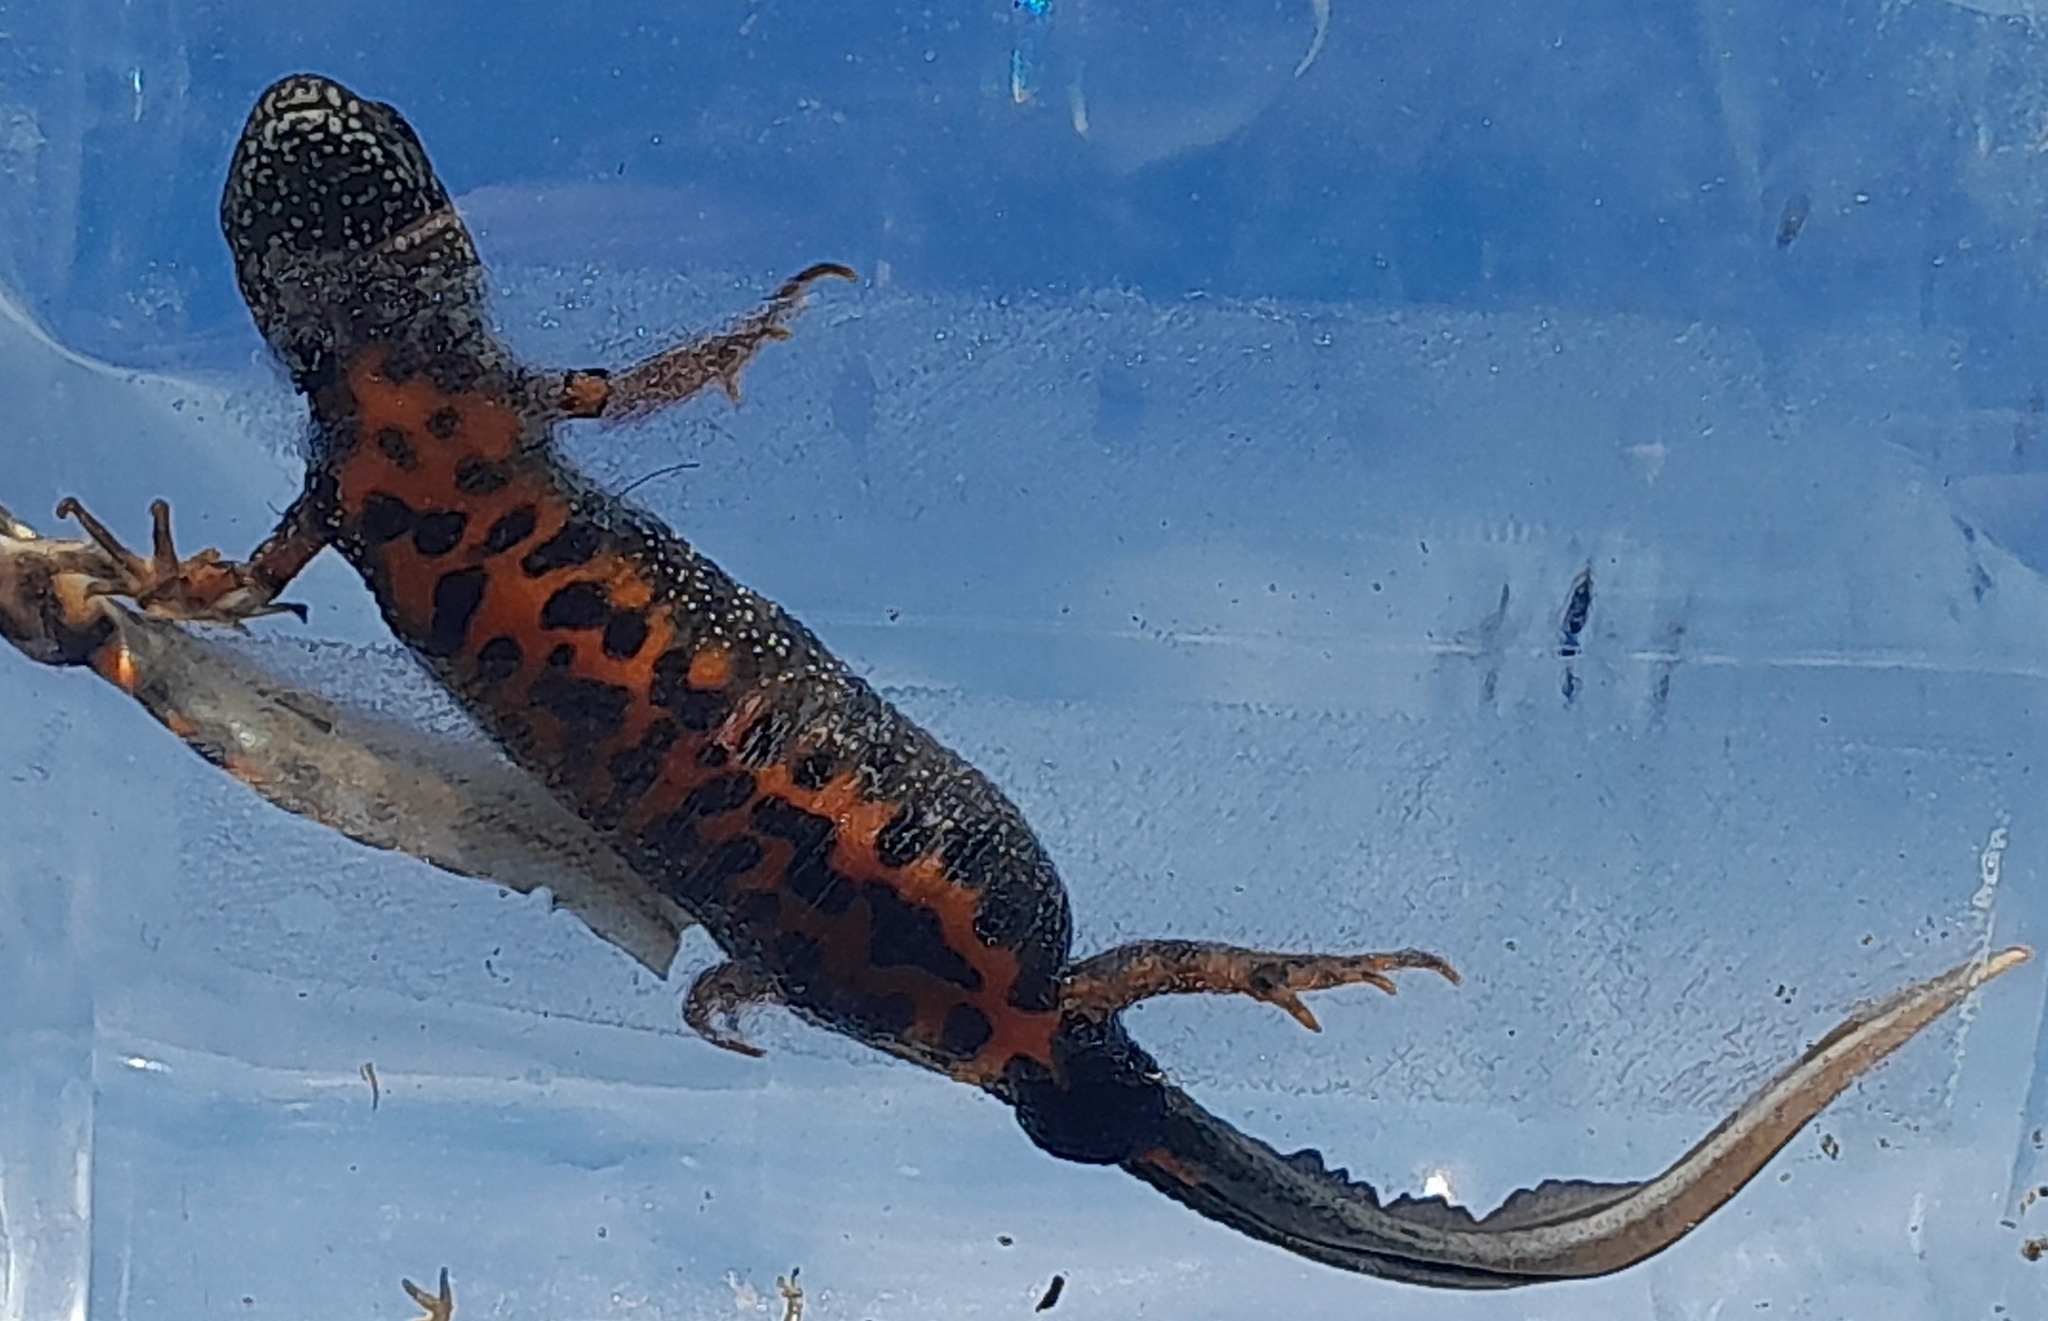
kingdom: Animalia
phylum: Chordata
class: Amphibia
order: Caudata
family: Salamandridae
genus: Triturus
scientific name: Triturus dobrogicus
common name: Danube crested newt
